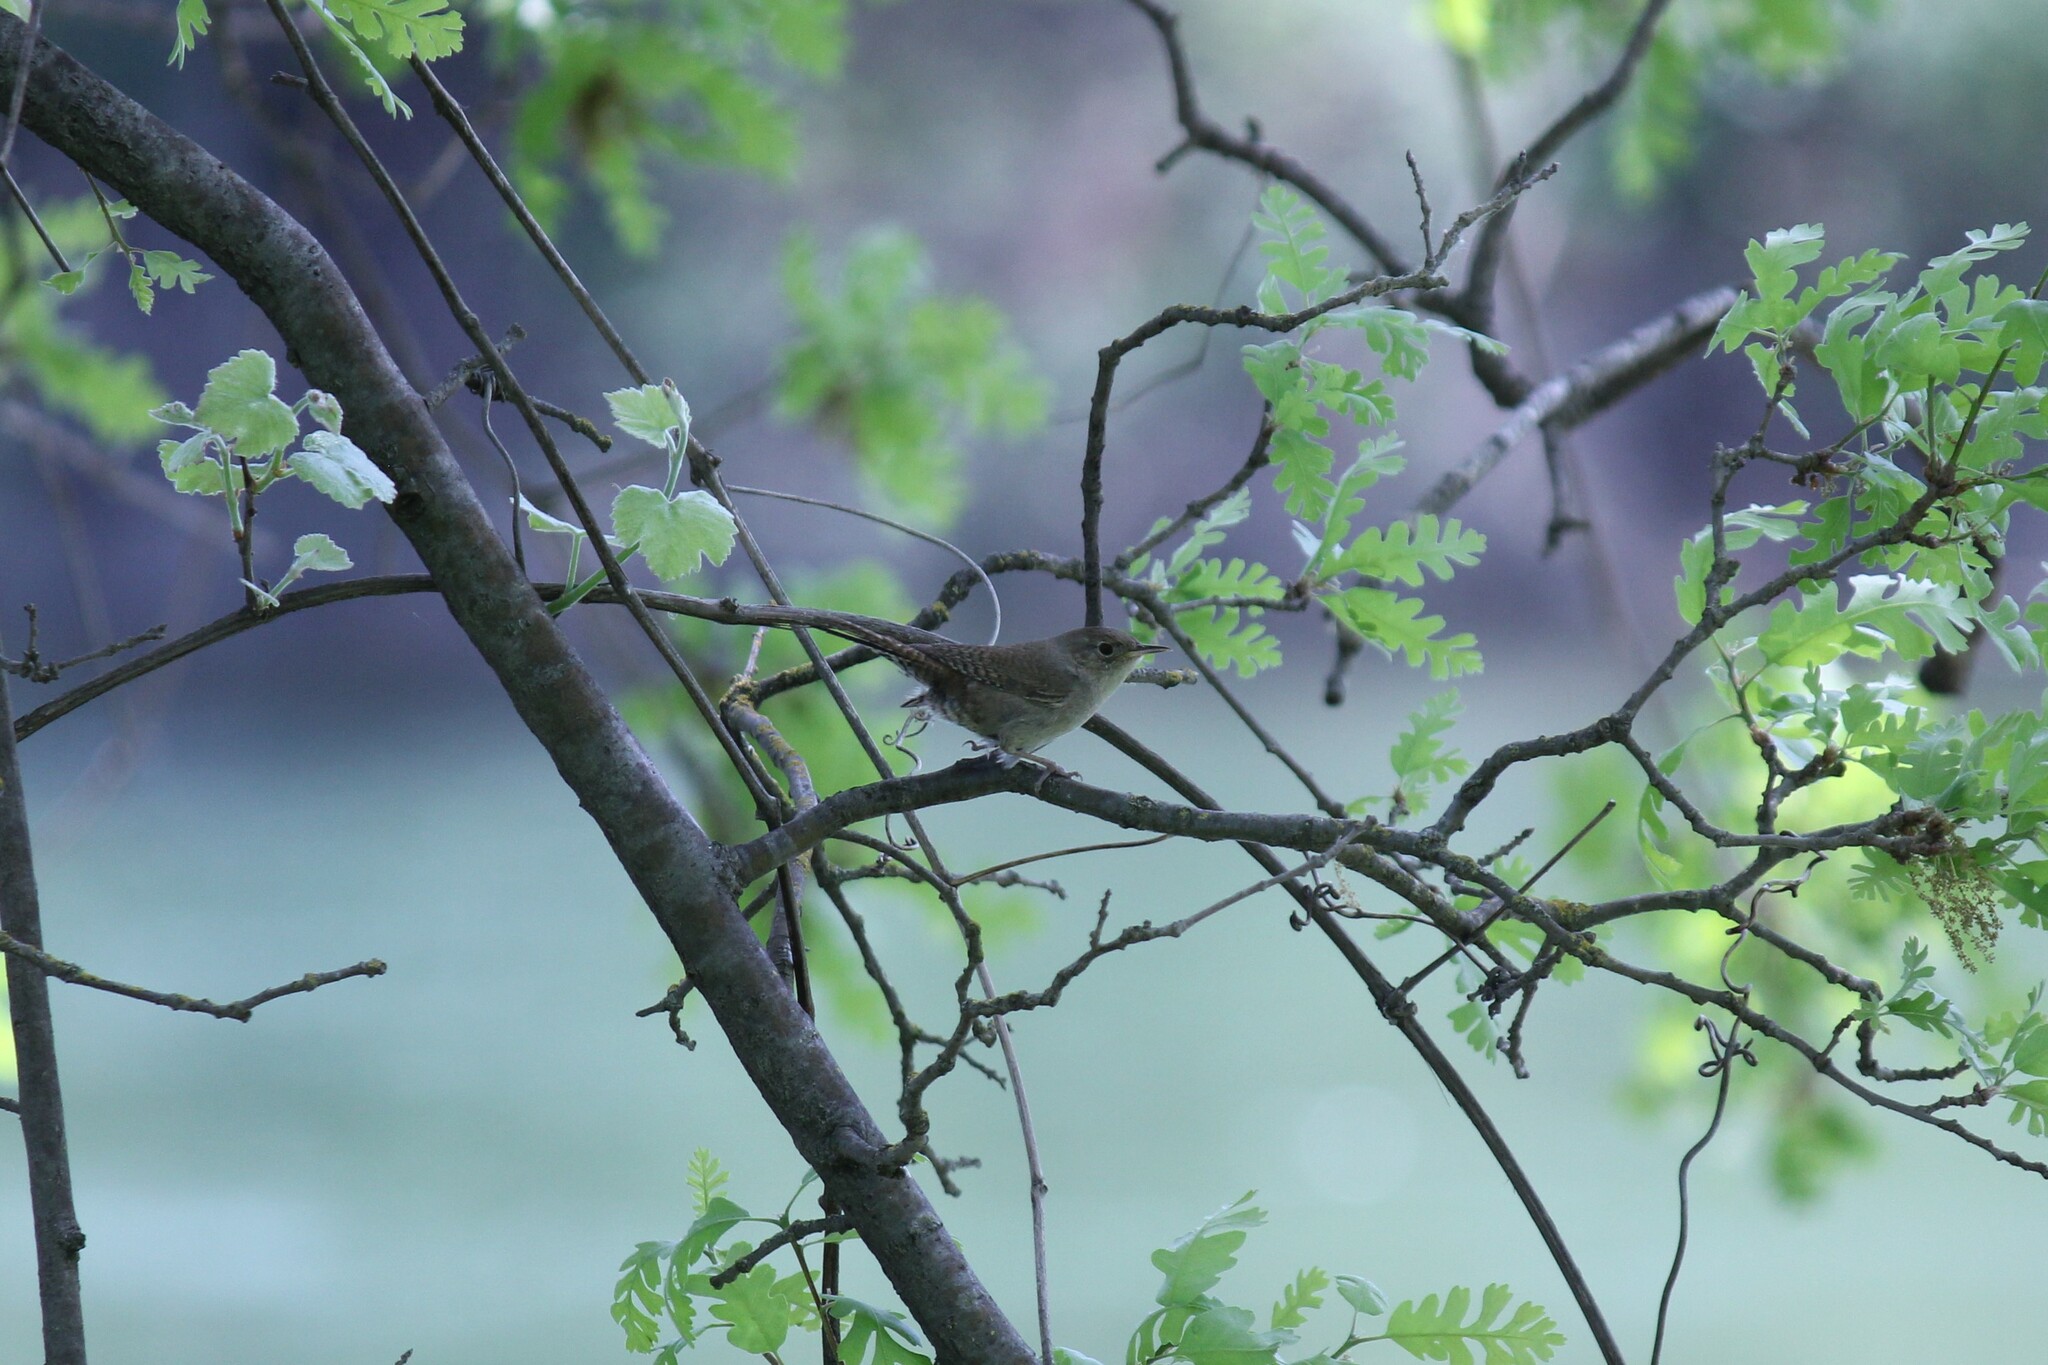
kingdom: Animalia
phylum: Chordata
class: Aves
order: Passeriformes
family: Troglodytidae
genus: Troglodytes
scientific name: Troglodytes aedon
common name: House wren
